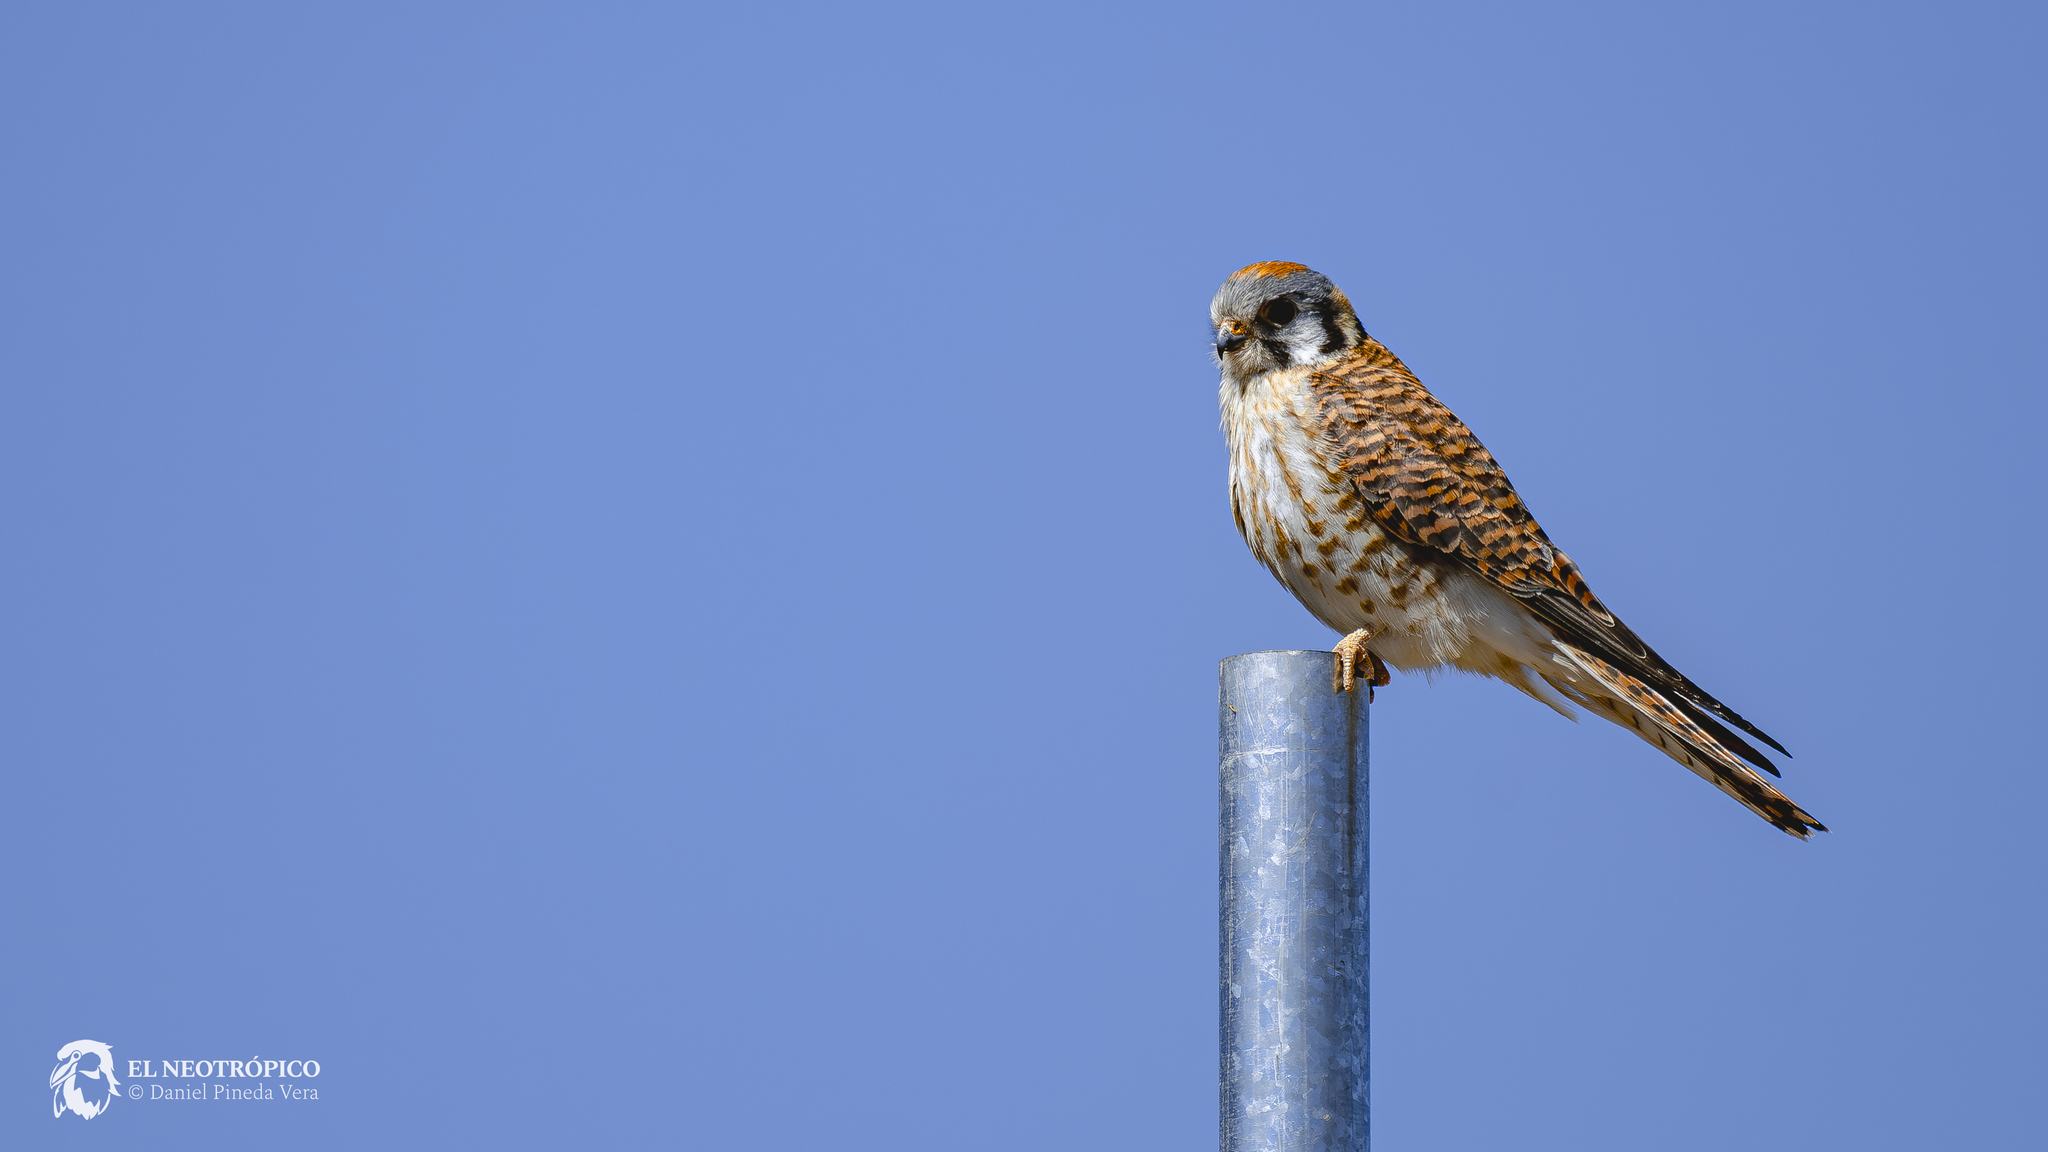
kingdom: Animalia
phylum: Chordata
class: Aves
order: Falconiformes
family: Falconidae
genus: Falco
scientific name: Falco sparverius
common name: American kestrel
